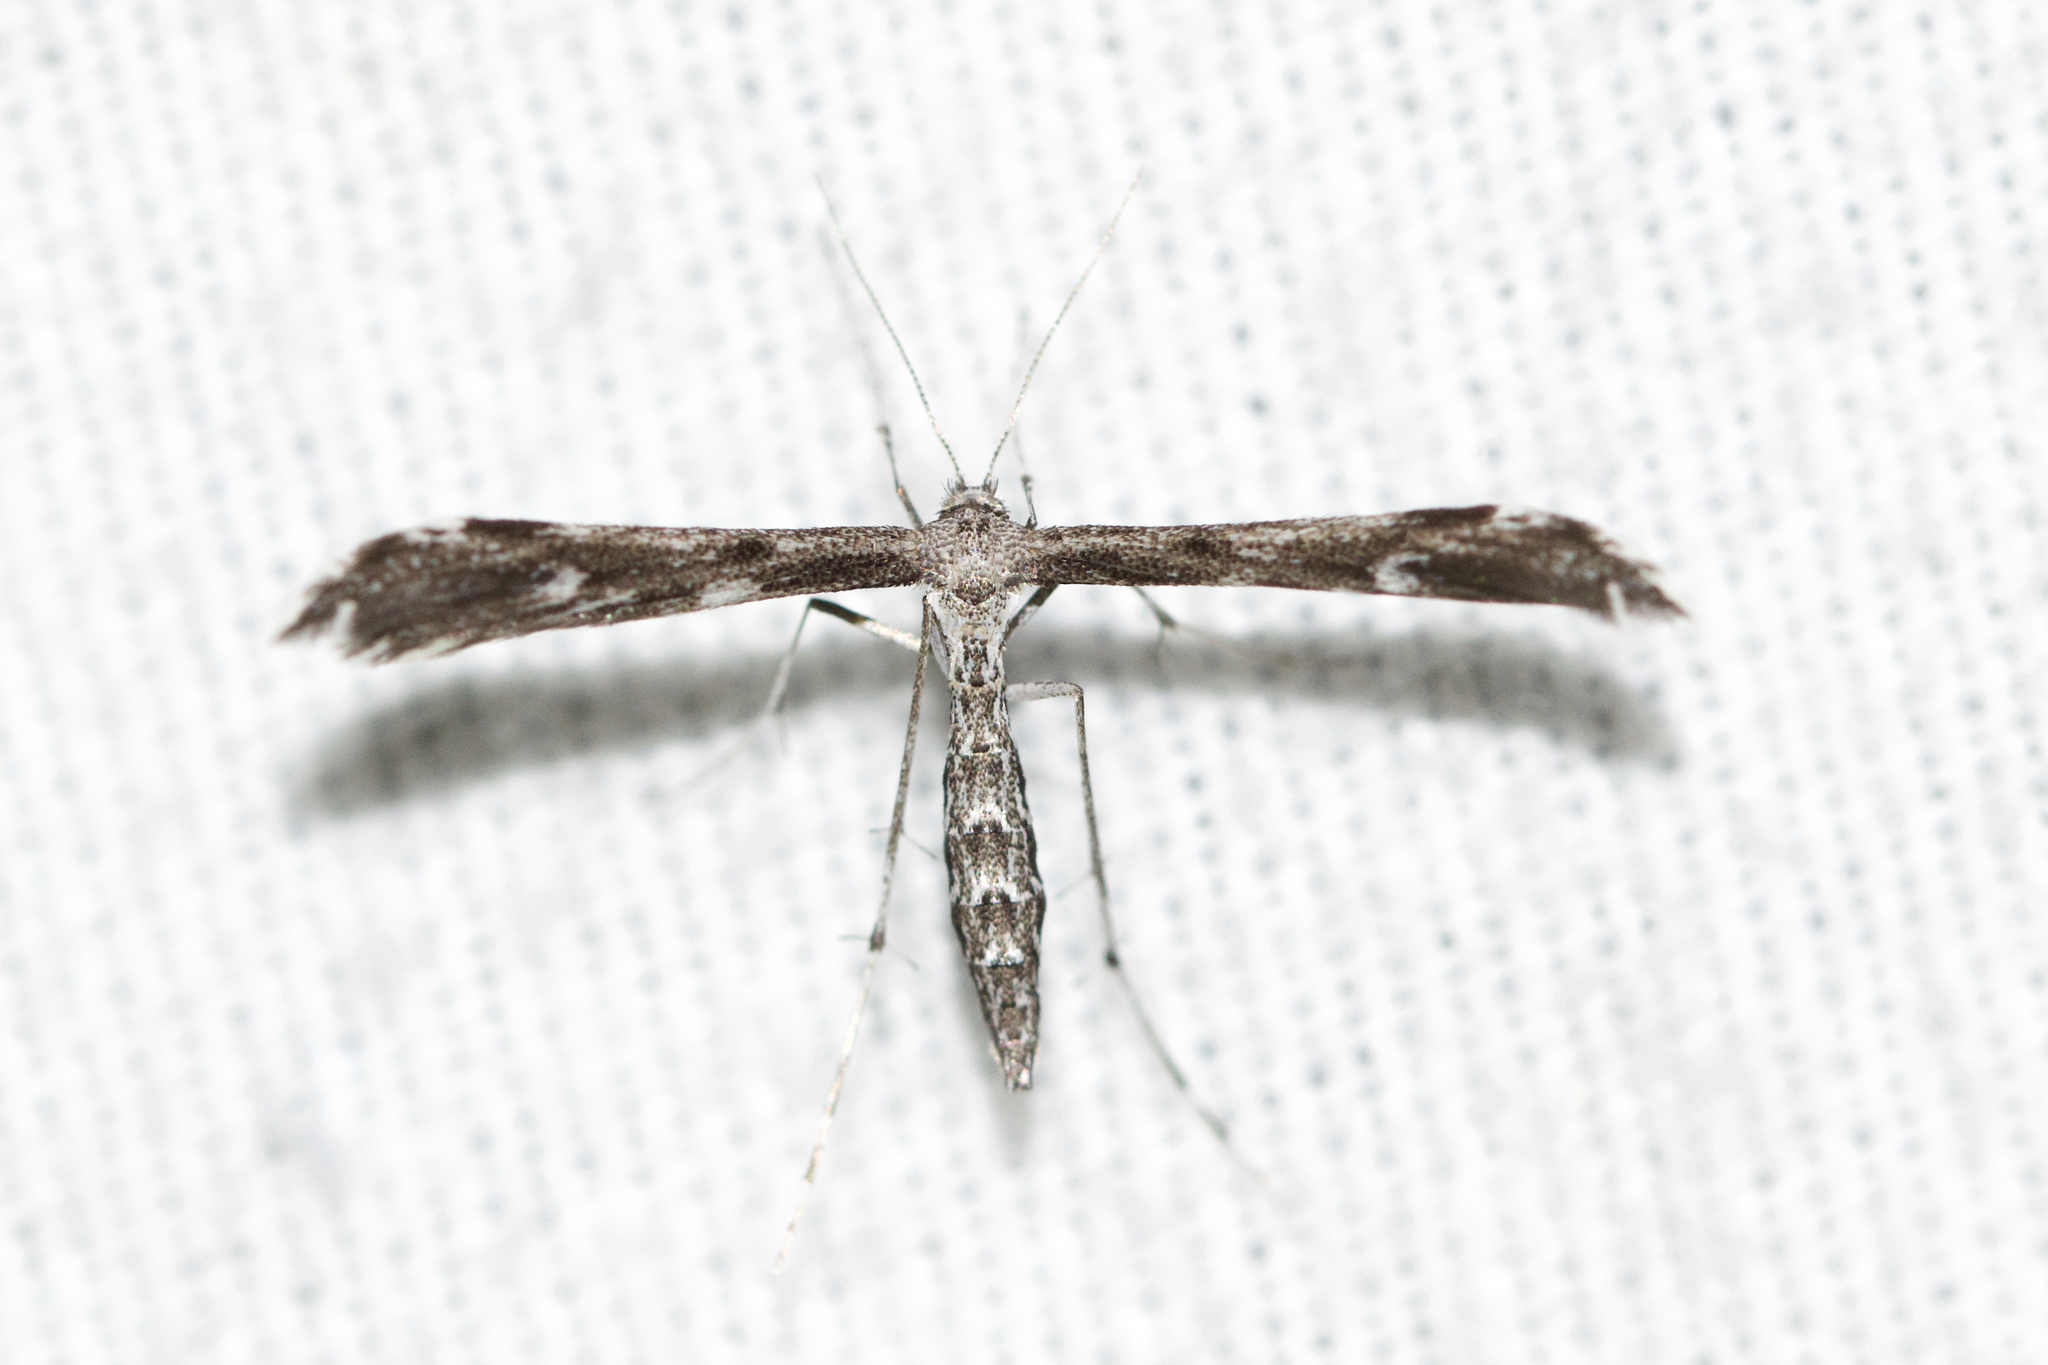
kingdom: Animalia
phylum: Arthropoda
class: Insecta
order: Lepidoptera
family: Pterophoridae
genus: Hellinsia
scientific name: Hellinsia inquinatus
